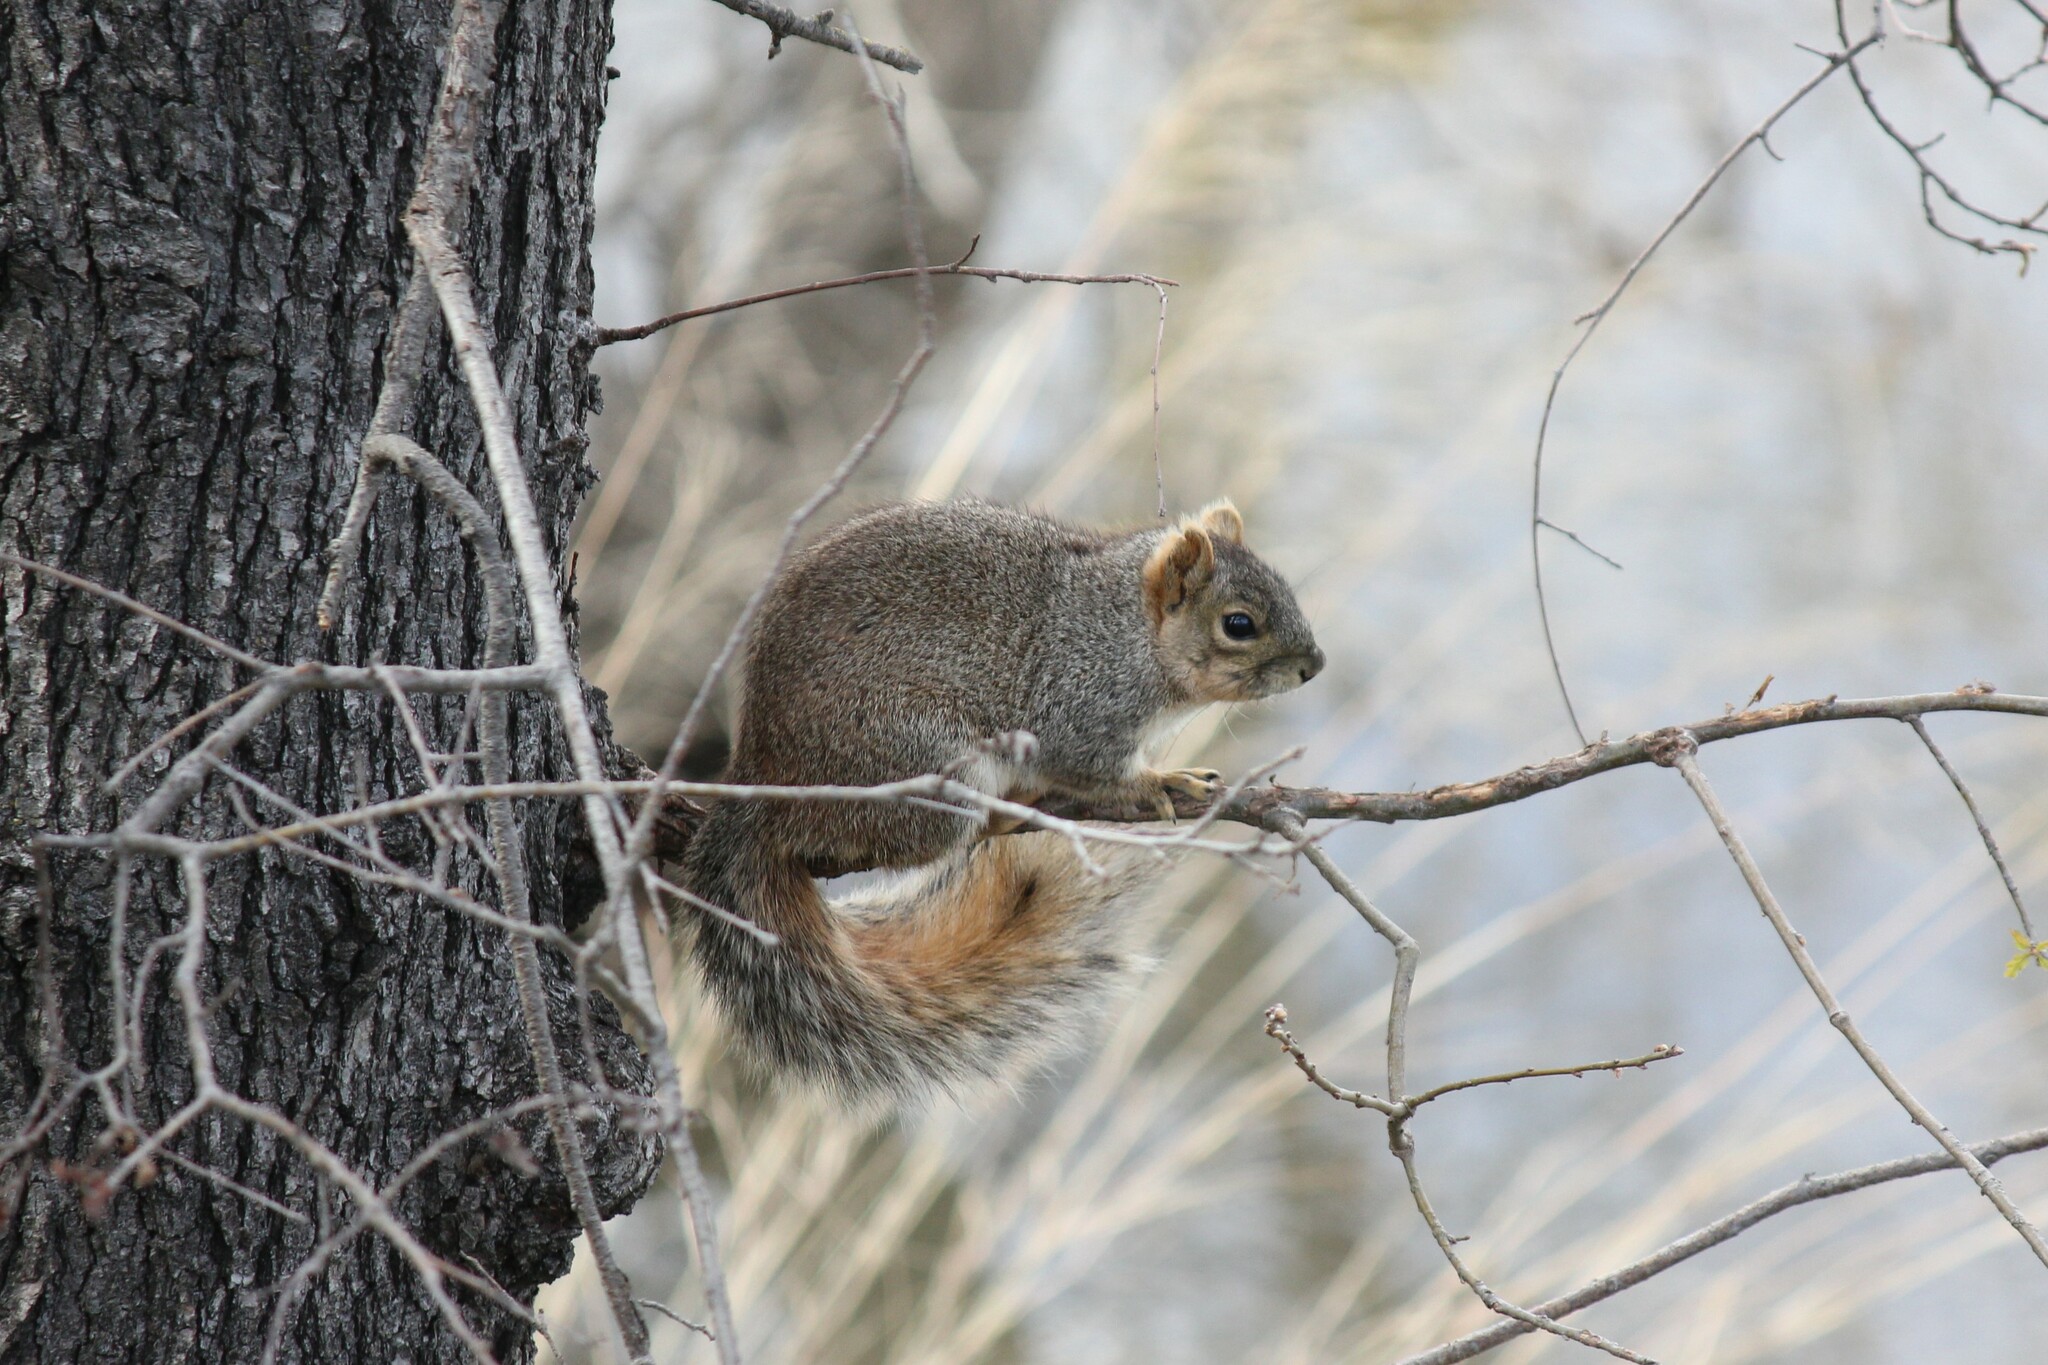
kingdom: Animalia
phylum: Chordata
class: Mammalia
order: Rodentia
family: Sciuridae
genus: Sciurus
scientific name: Sciurus niger
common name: Fox squirrel
